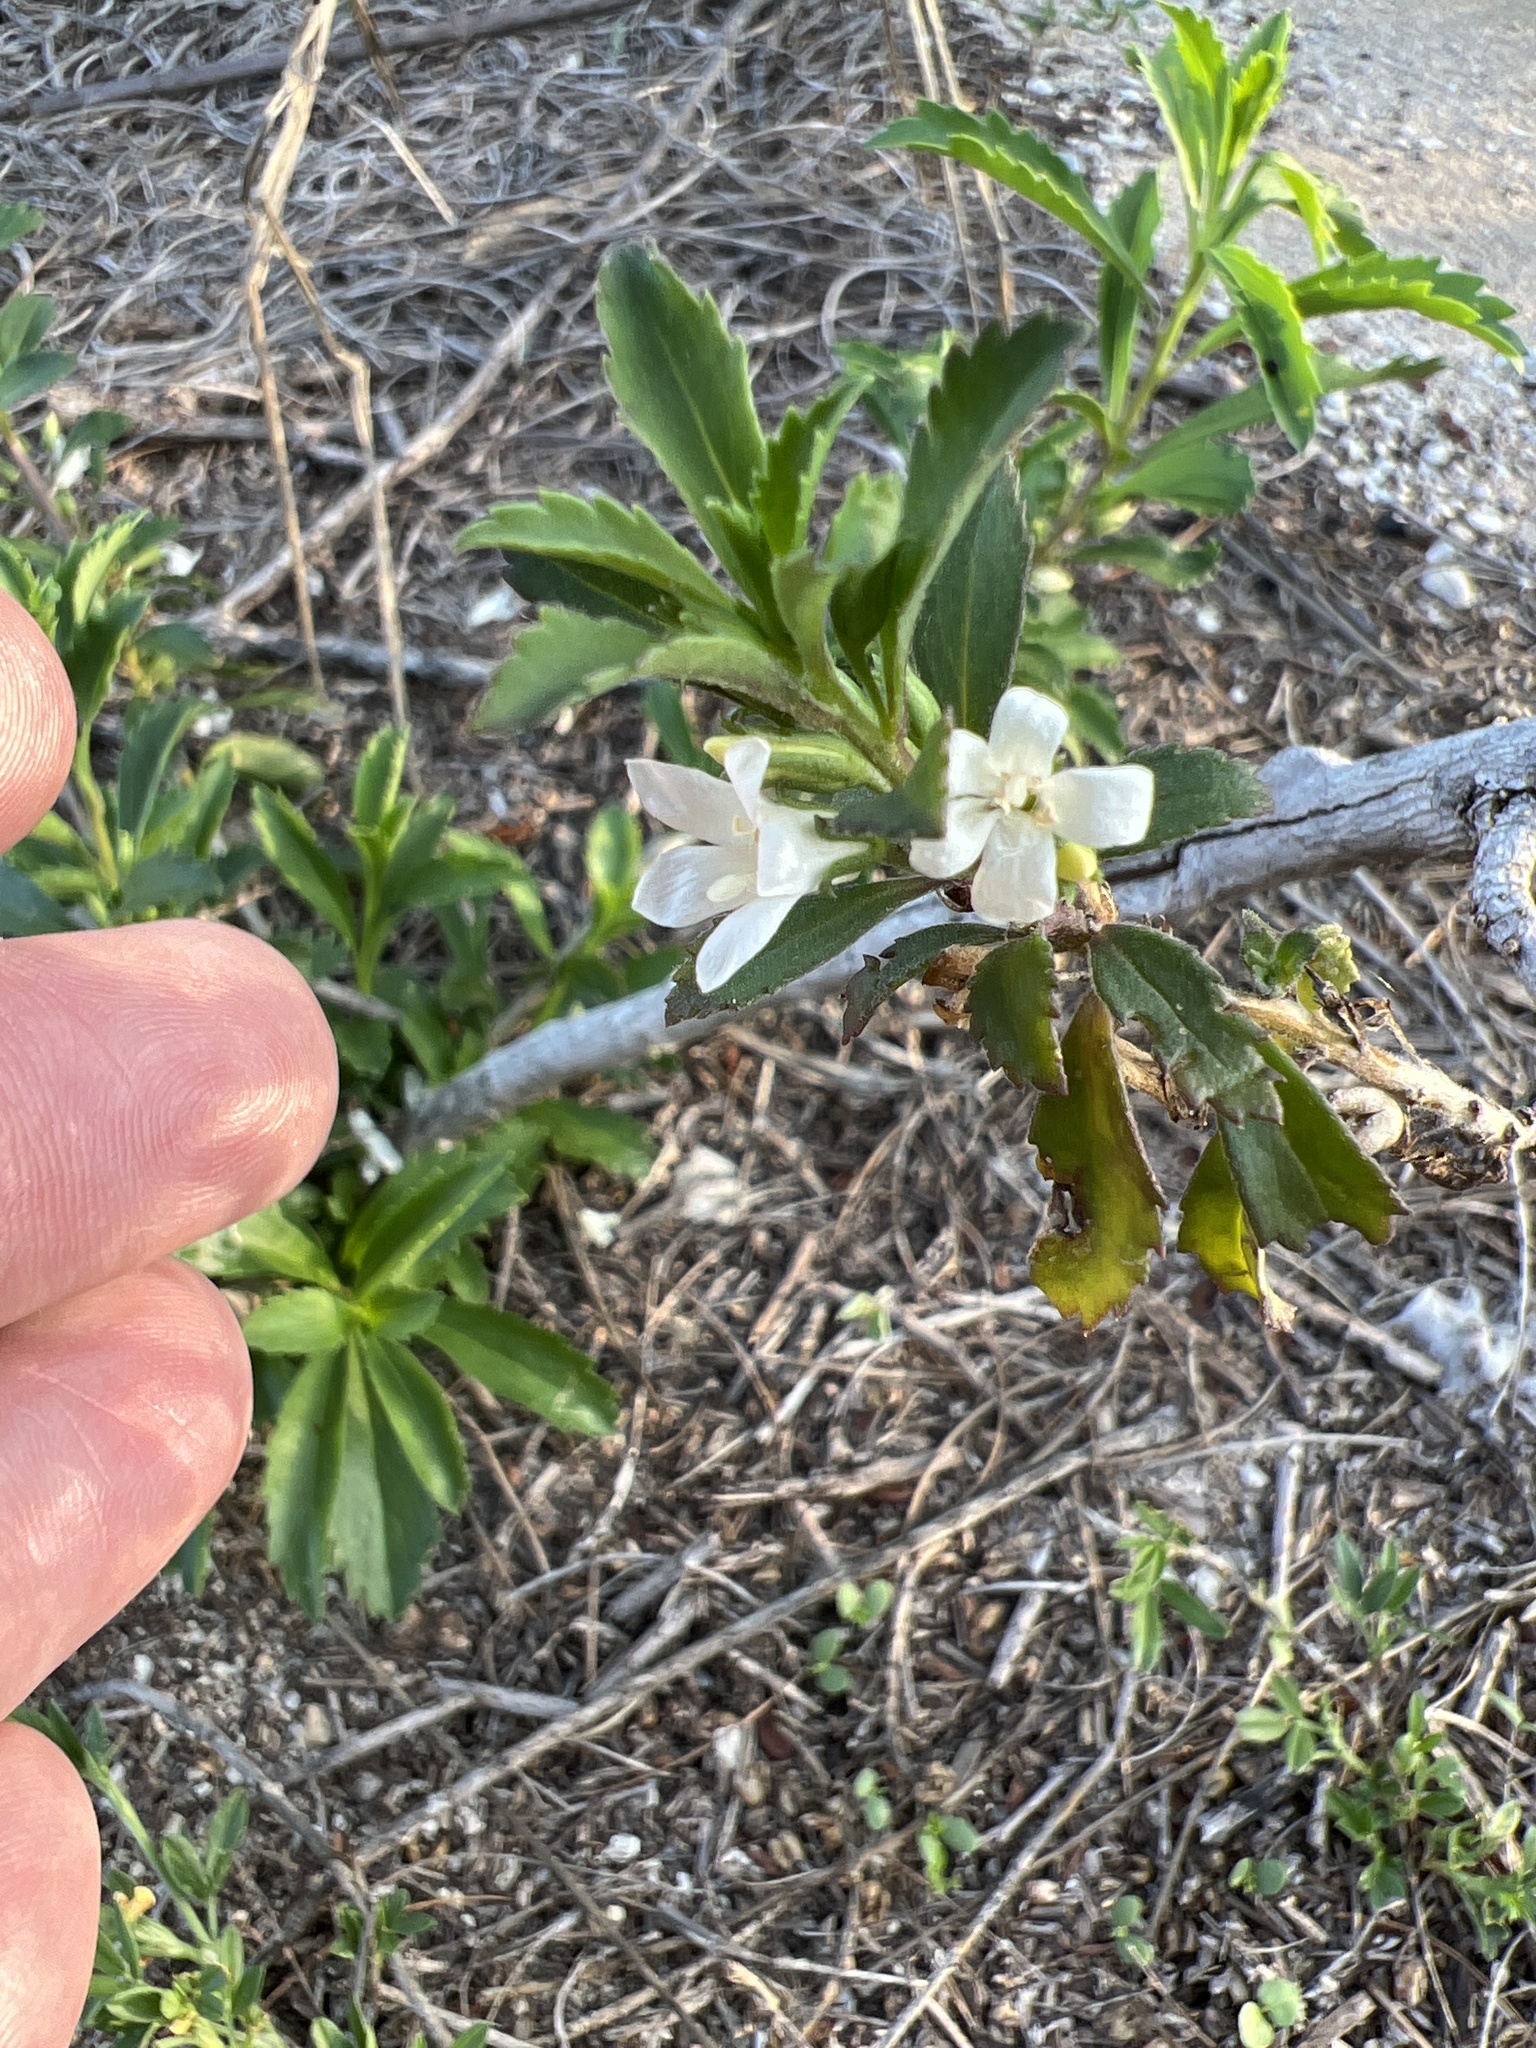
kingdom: Plantae
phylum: Tracheophyta
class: Magnoliopsida
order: Lamiales
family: Scrophulariaceae
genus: Capraria
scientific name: Capraria biflora
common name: Goatweed
